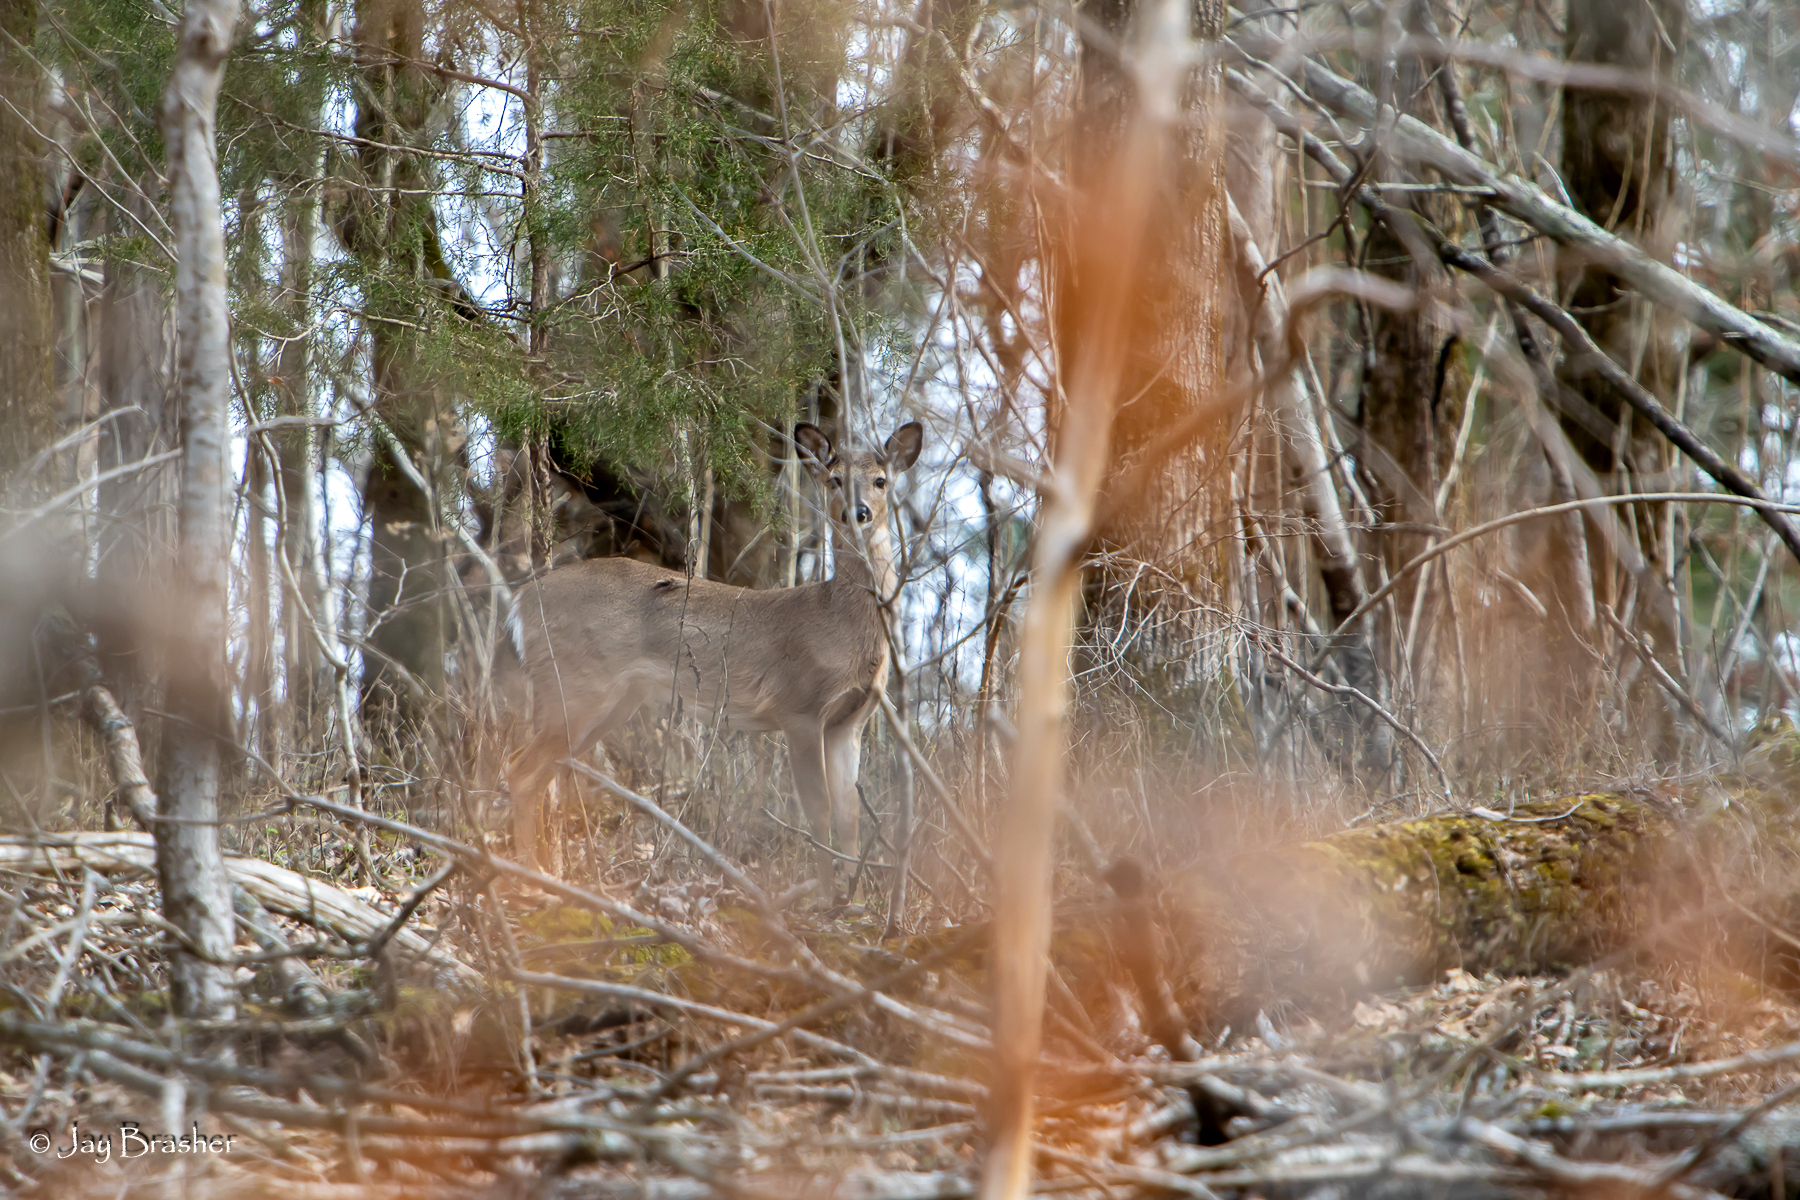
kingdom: Animalia
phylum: Chordata
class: Mammalia
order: Artiodactyla
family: Cervidae
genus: Odocoileus
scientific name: Odocoileus virginianus
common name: White-tailed deer
